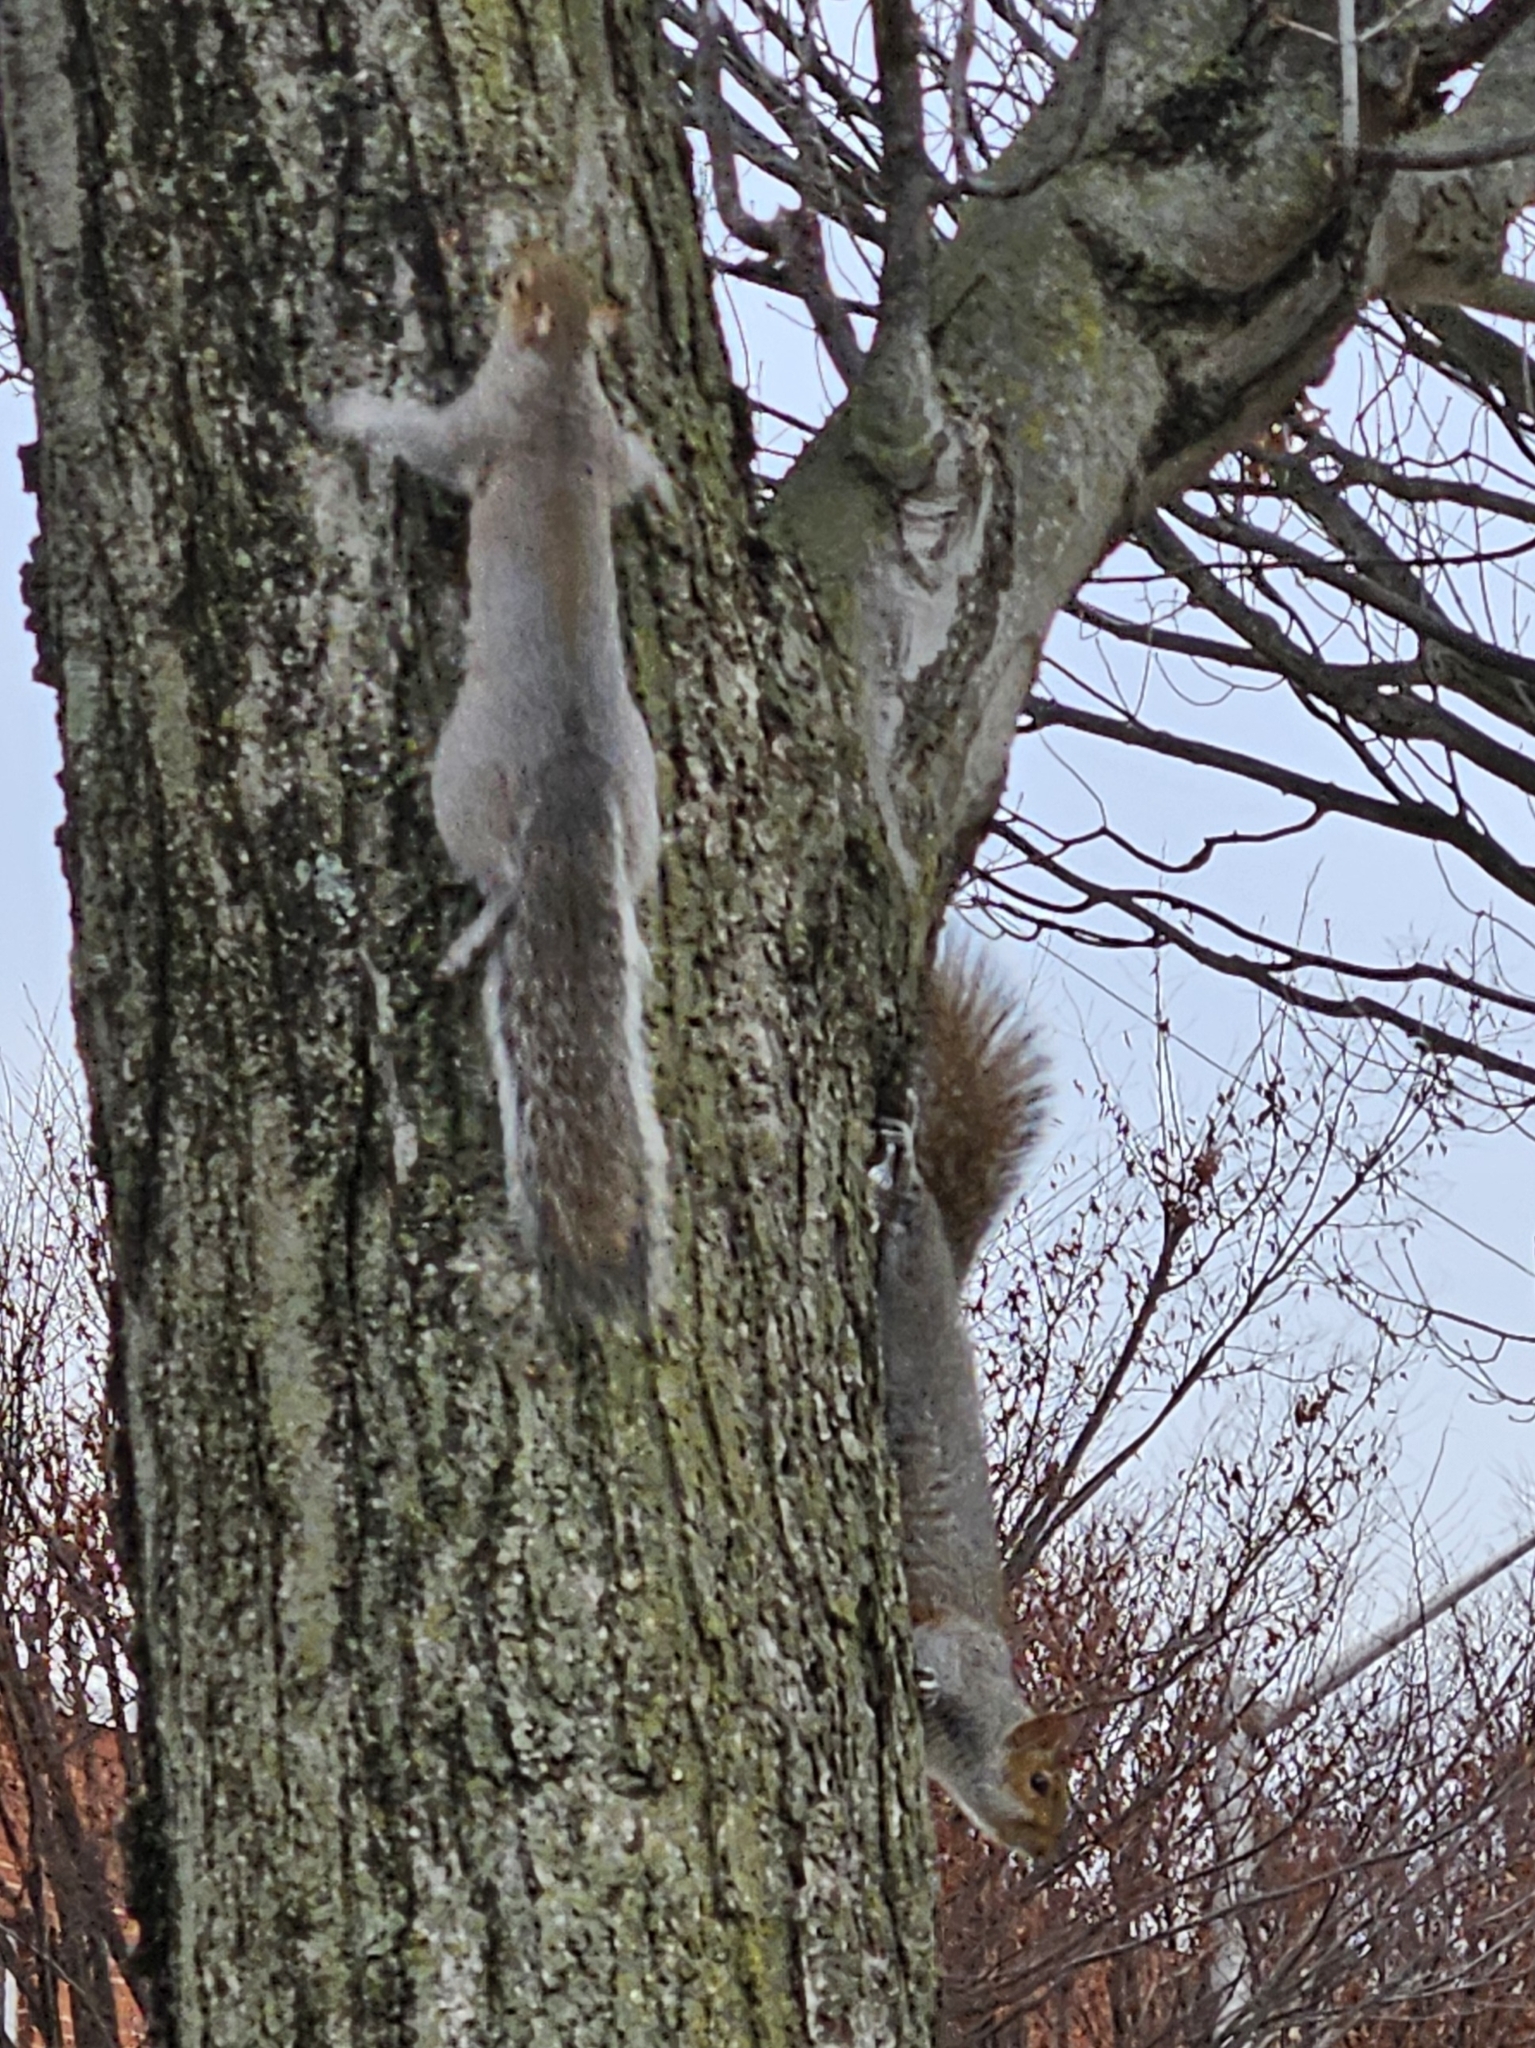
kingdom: Animalia
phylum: Chordata
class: Mammalia
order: Rodentia
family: Sciuridae
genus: Sciurus
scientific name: Sciurus carolinensis
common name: Eastern gray squirrel
